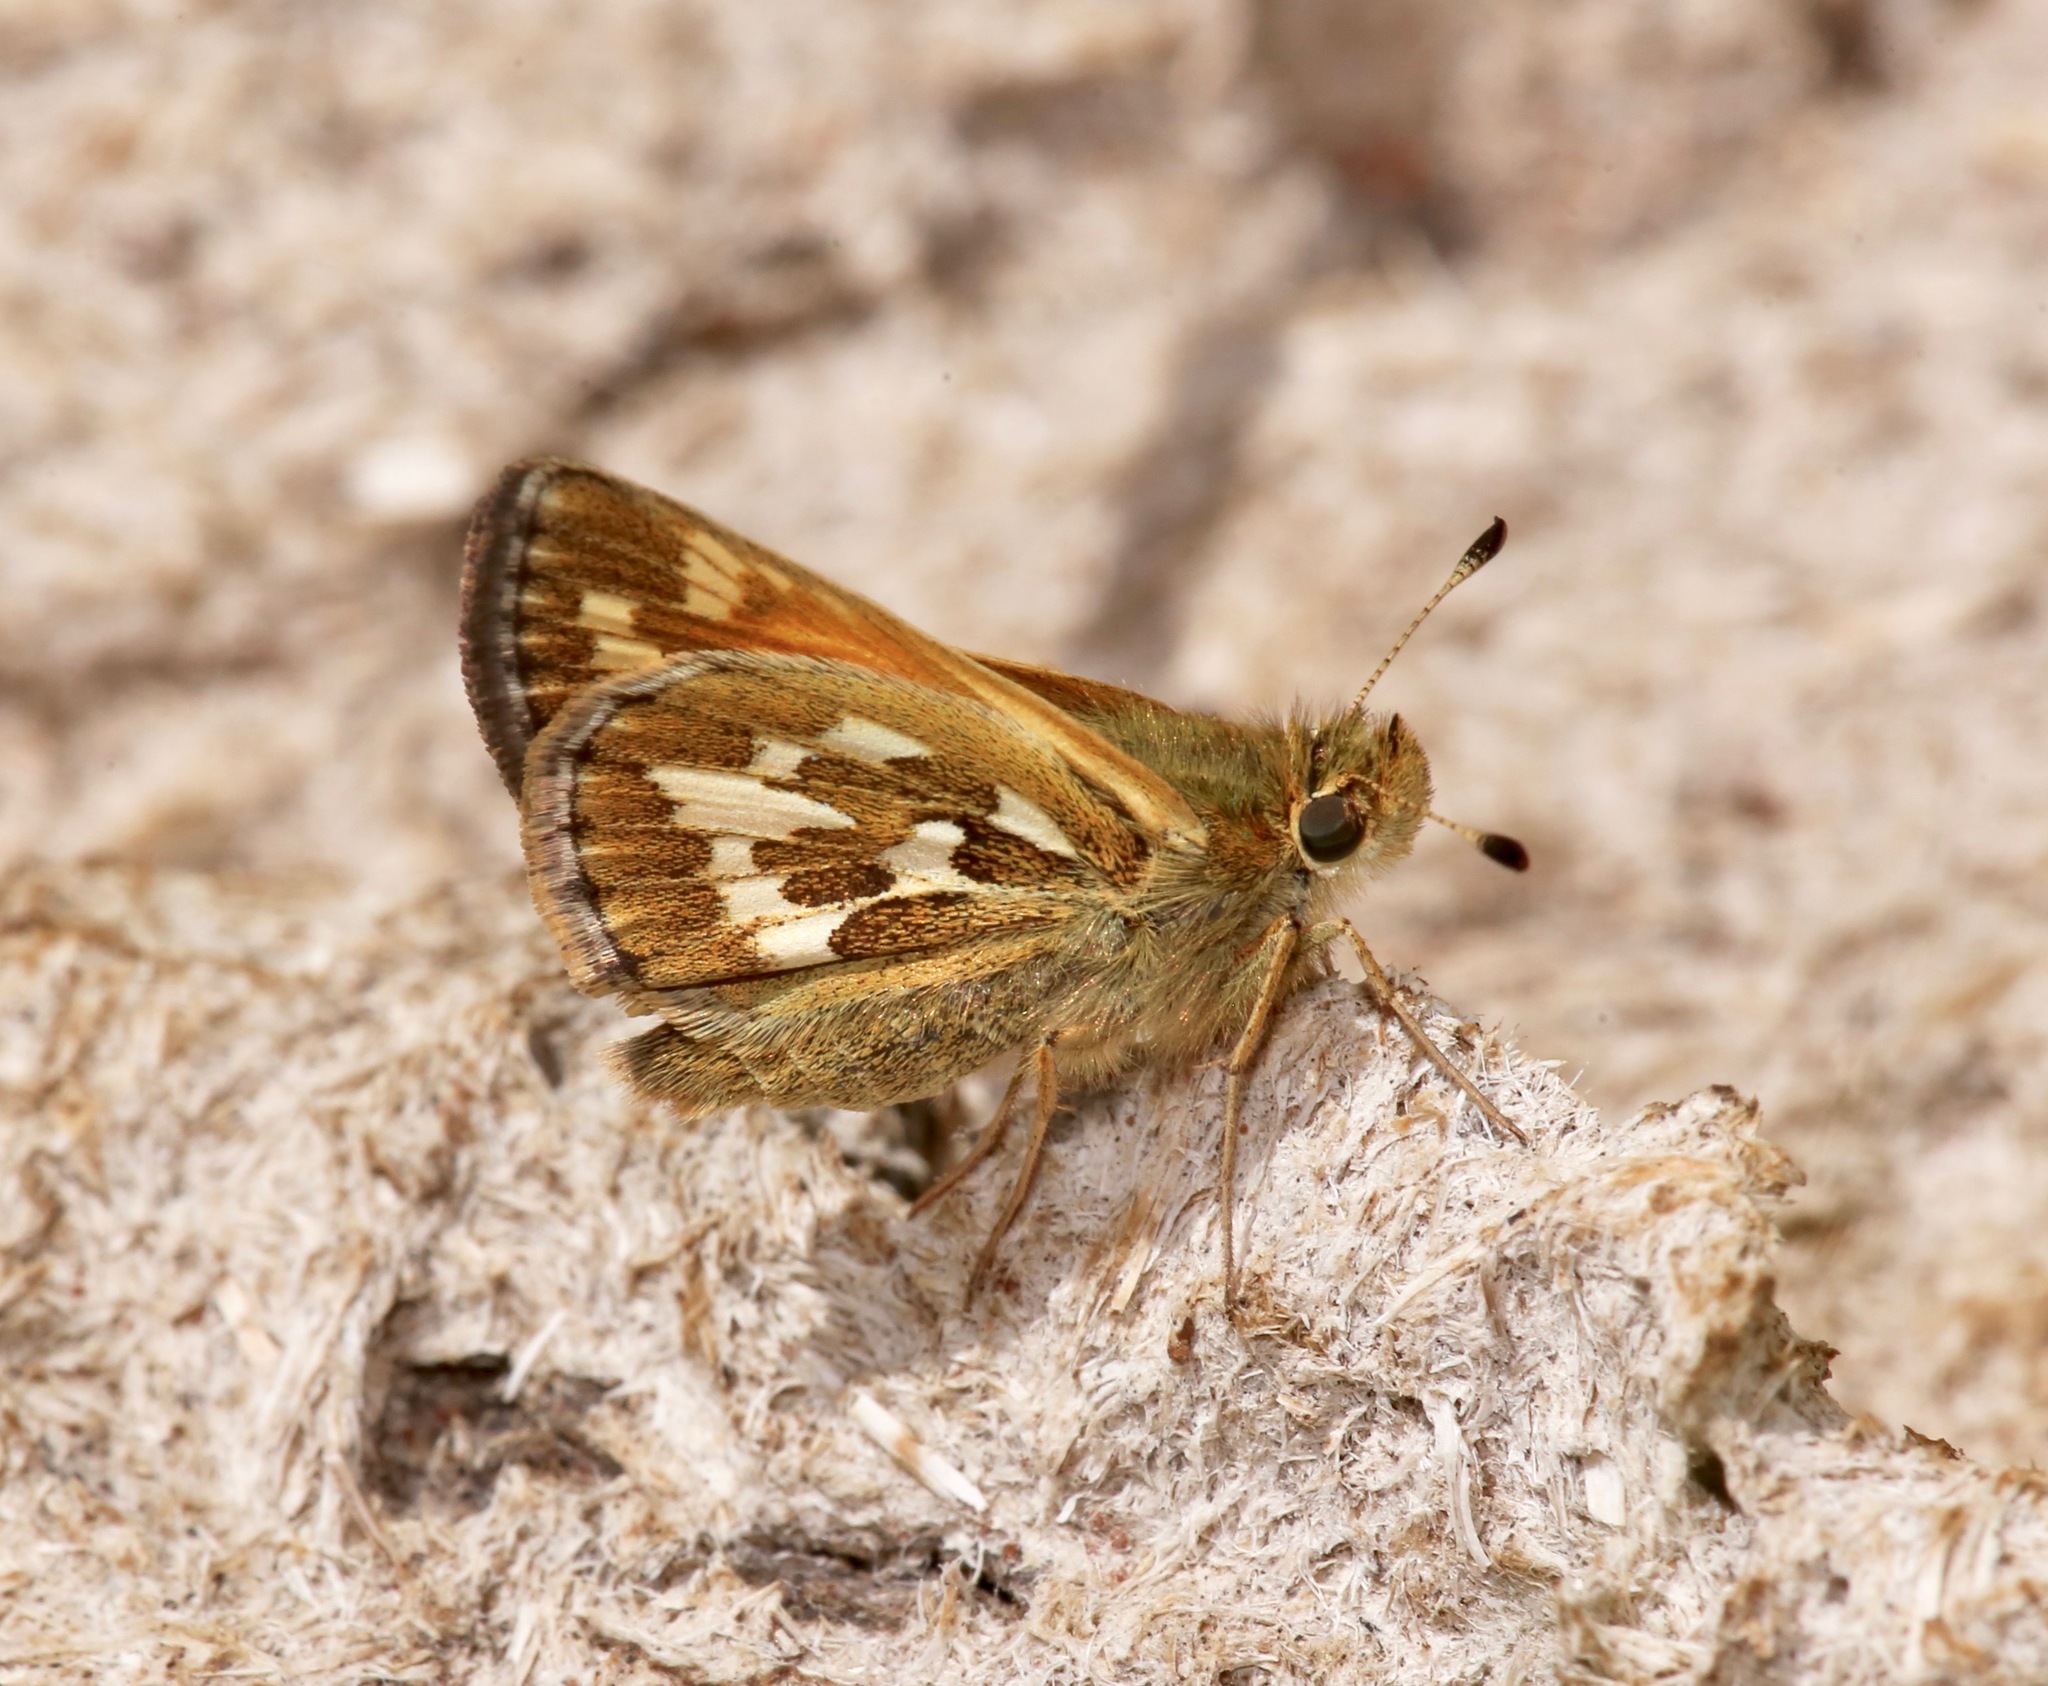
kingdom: Animalia
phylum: Arthropoda
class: Insecta
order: Lepidoptera
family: Hesperiidae
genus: Polites
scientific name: Polites sabuleti
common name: Sandhill skipper
